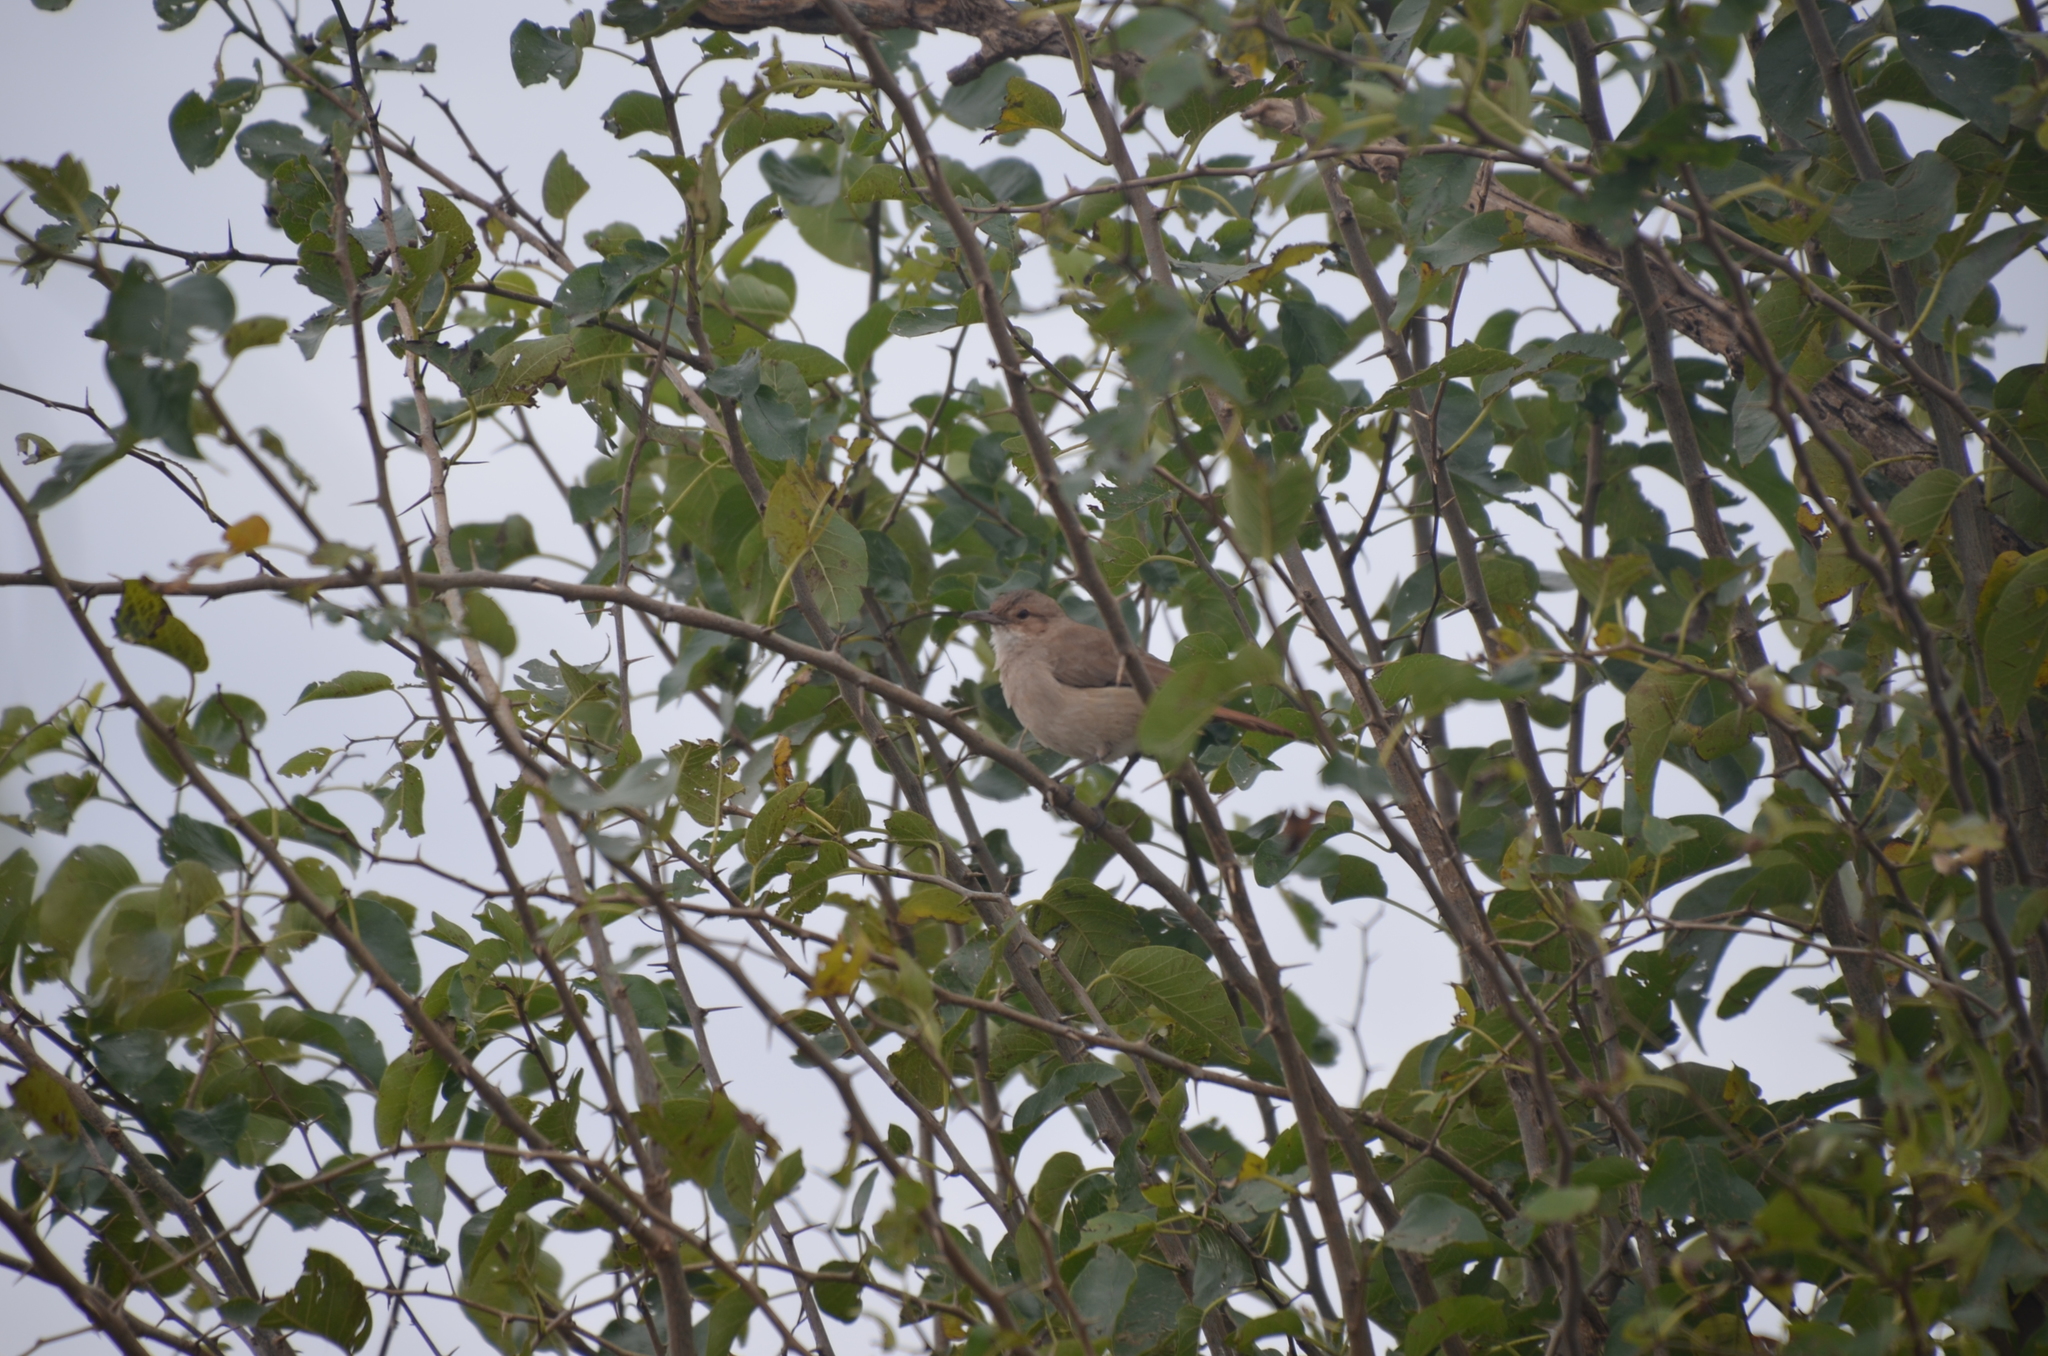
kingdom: Animalia
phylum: Chordata
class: Aves
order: Passeriformes
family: Furnariidae
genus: Furnarius
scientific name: Furnarius rufus
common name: Rufous hornero
